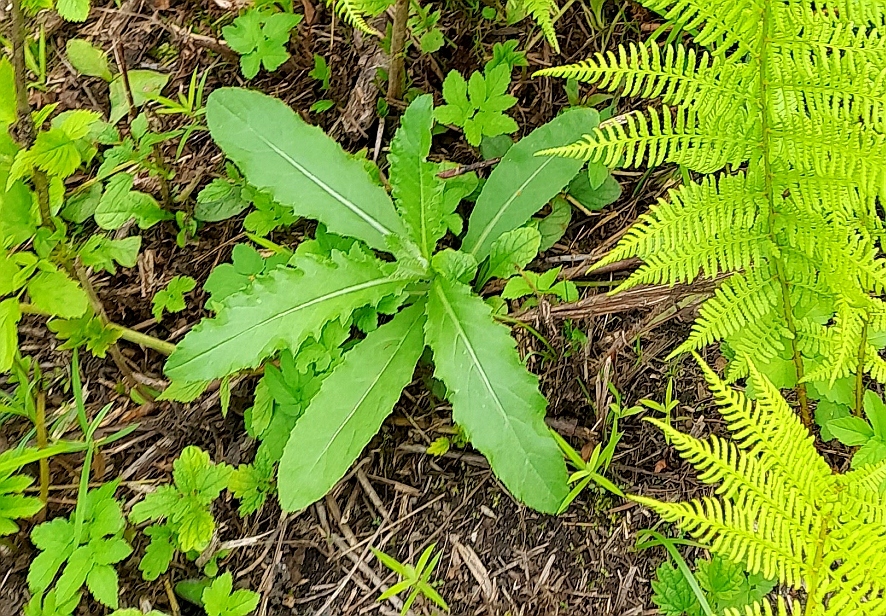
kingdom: Plantae
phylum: Tracheophyta
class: Magnoliopsida
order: Asterales
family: Asteraceae
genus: Cirsium
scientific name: Cirsium arvense
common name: Creeping thistle
